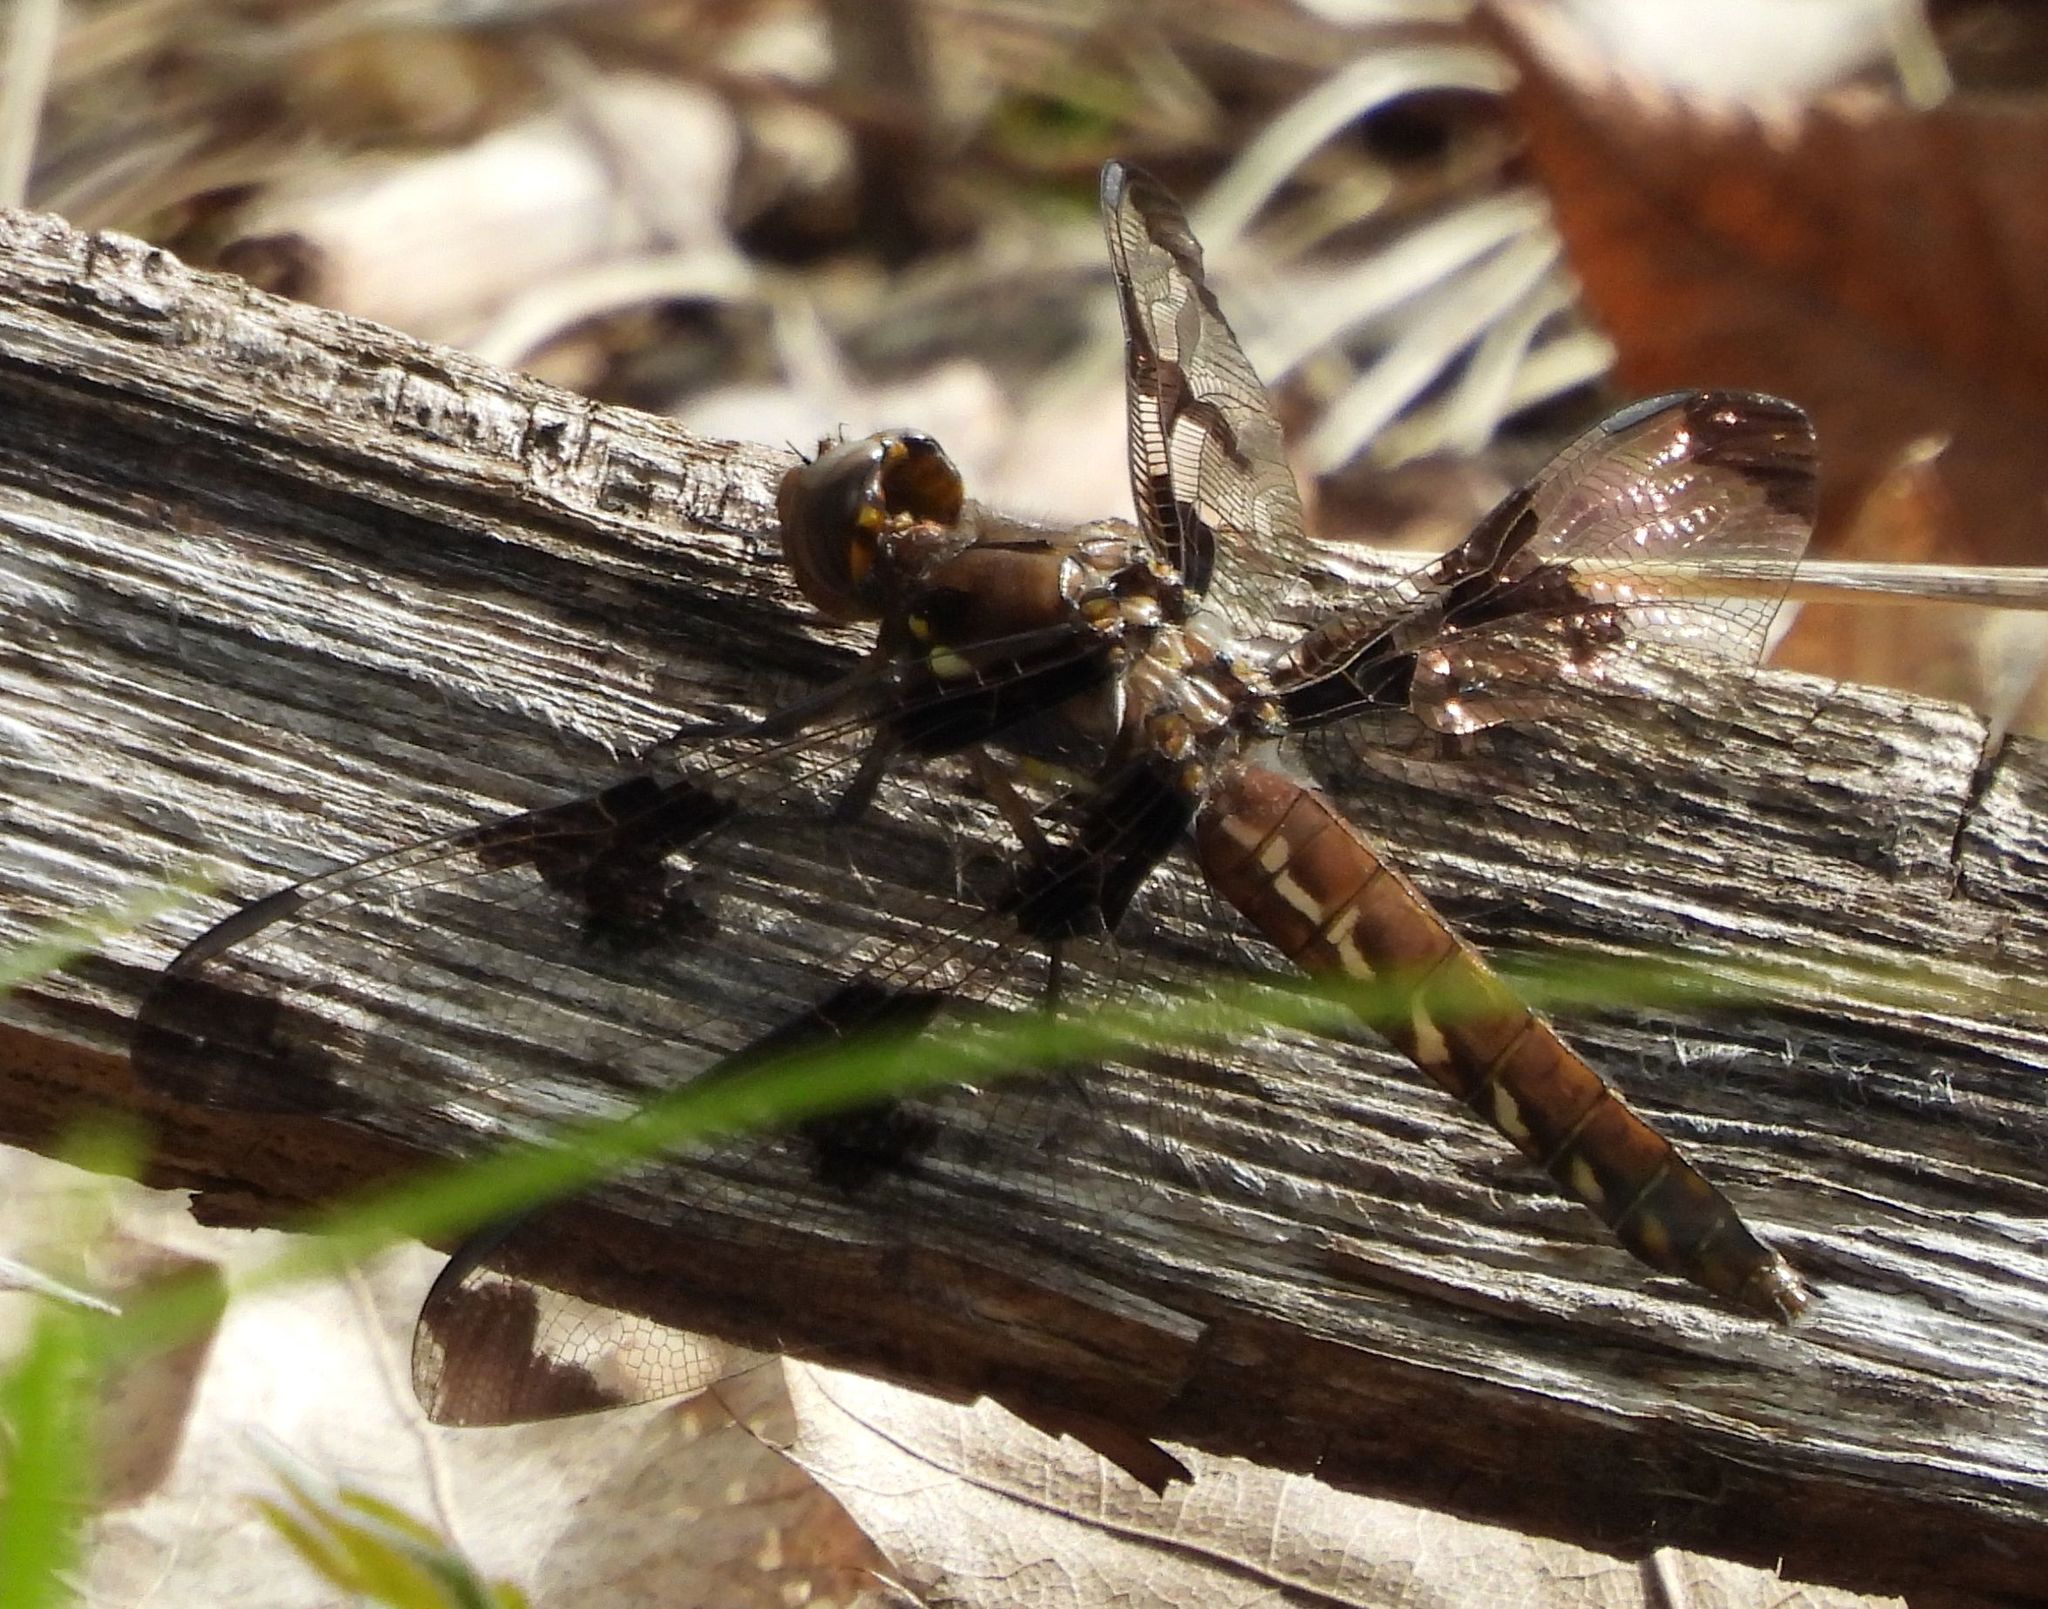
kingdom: Animalia
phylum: Arthropoda
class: Insecta
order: Odonata
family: Libellulidae
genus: Plathemis
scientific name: Plathemis lydia
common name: Common whitetail
